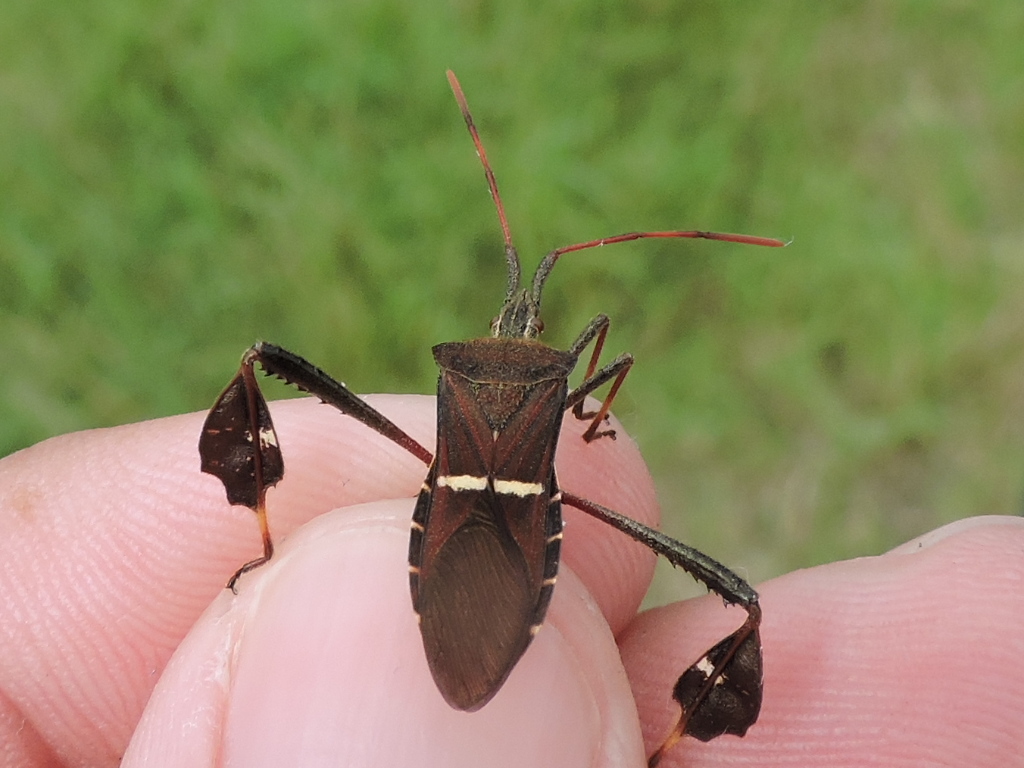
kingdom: Animalia
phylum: Arthropoda
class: Insecta
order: Hemiptera
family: Coreidae
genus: Leptoglossus
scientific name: Leptoglossus phyllopus
